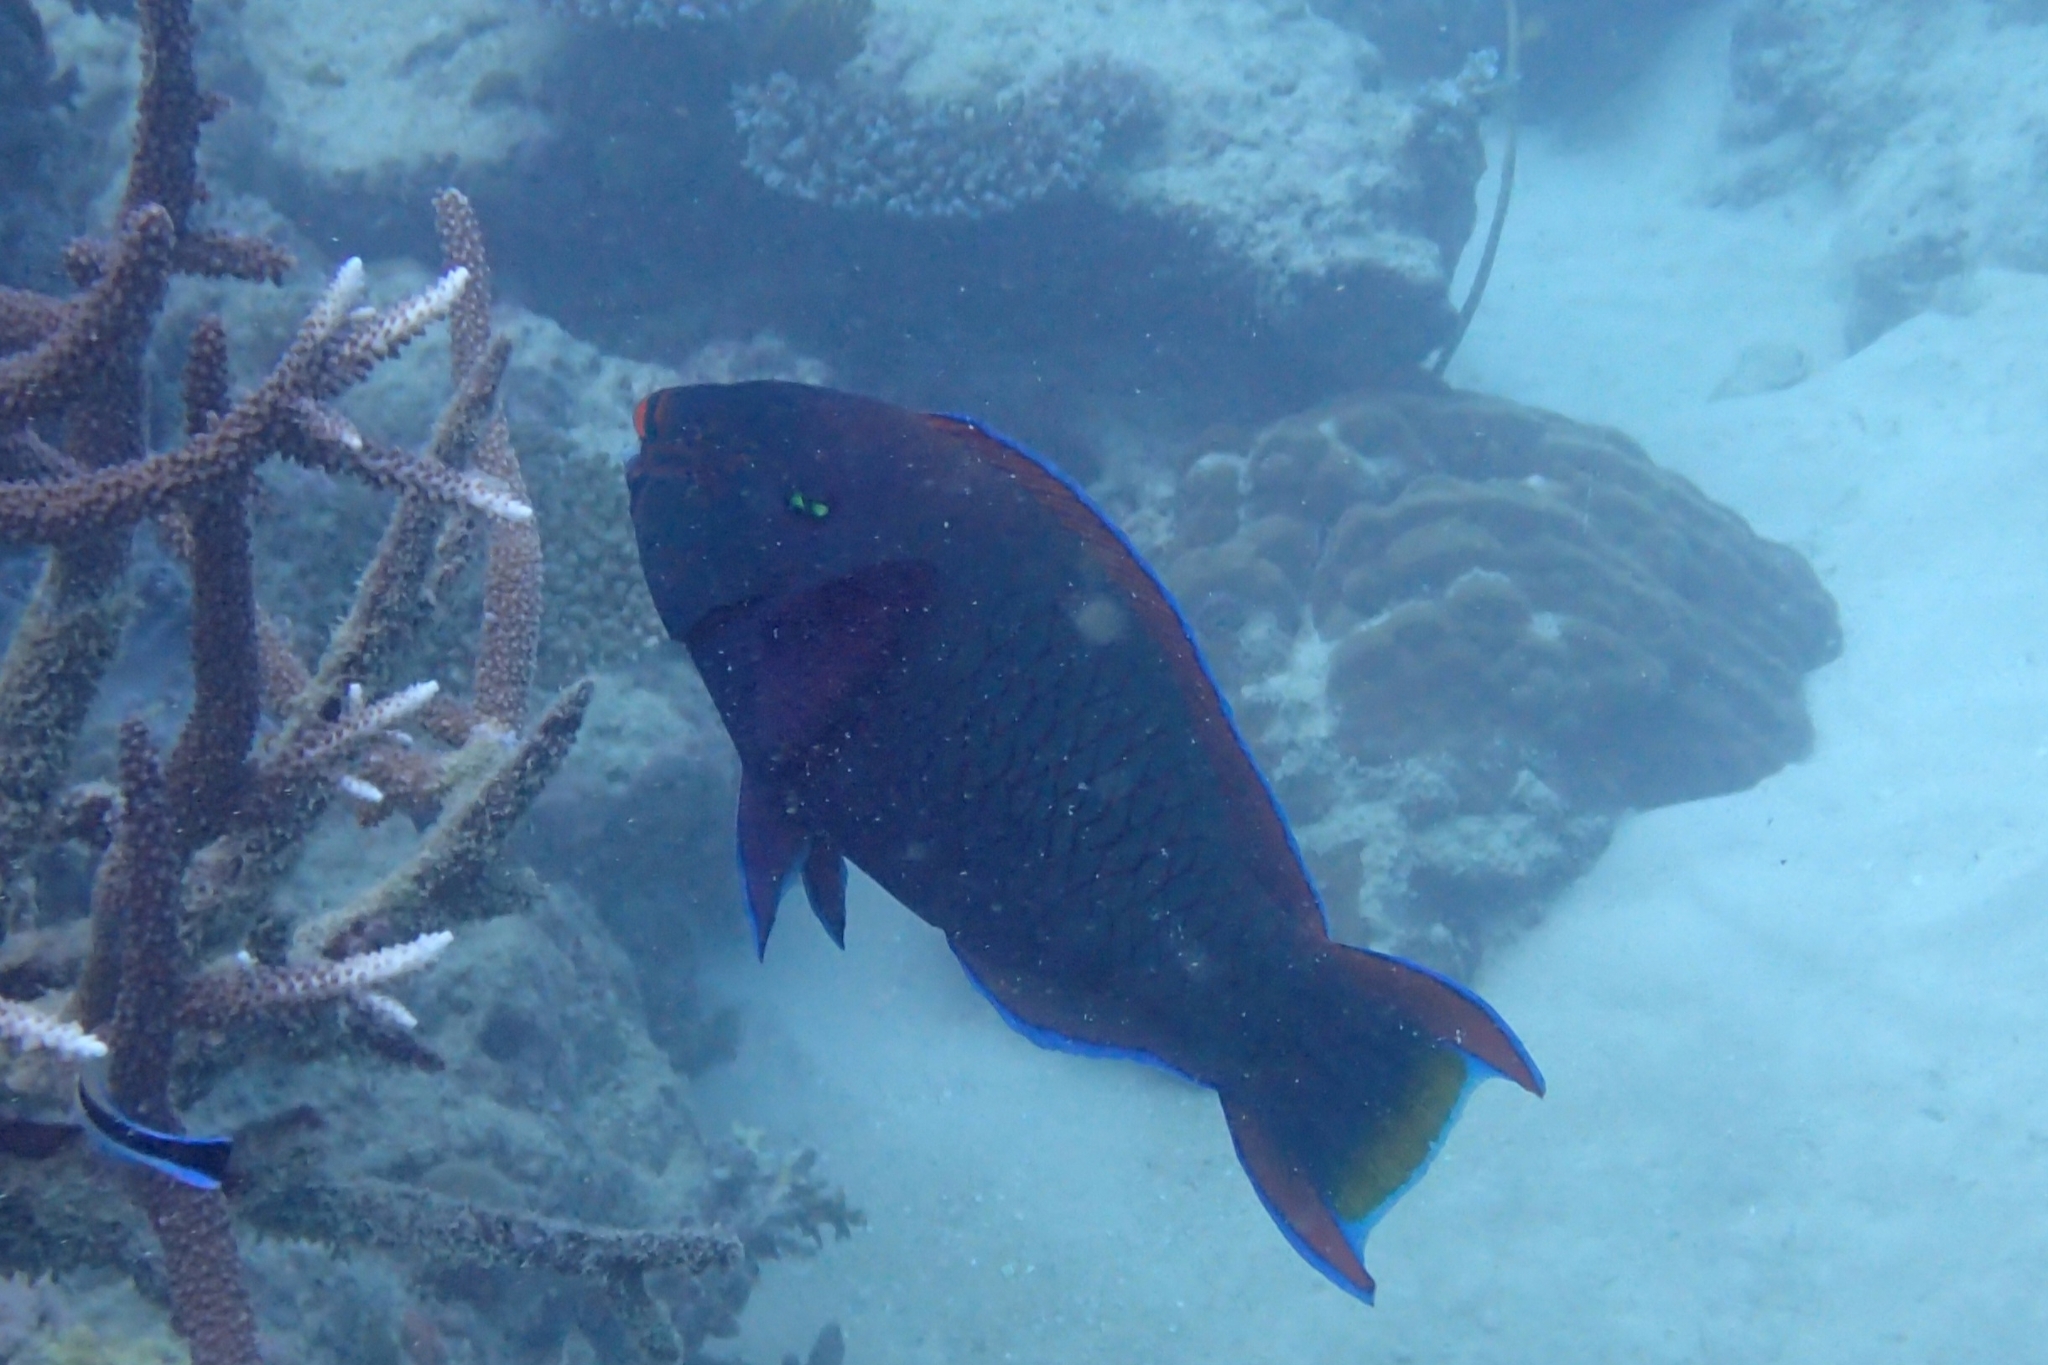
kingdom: Animalia
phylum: Chordata
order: Perciformes
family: Scaridae
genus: Scarus
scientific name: Scarus niger
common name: Dusky parrotfish
